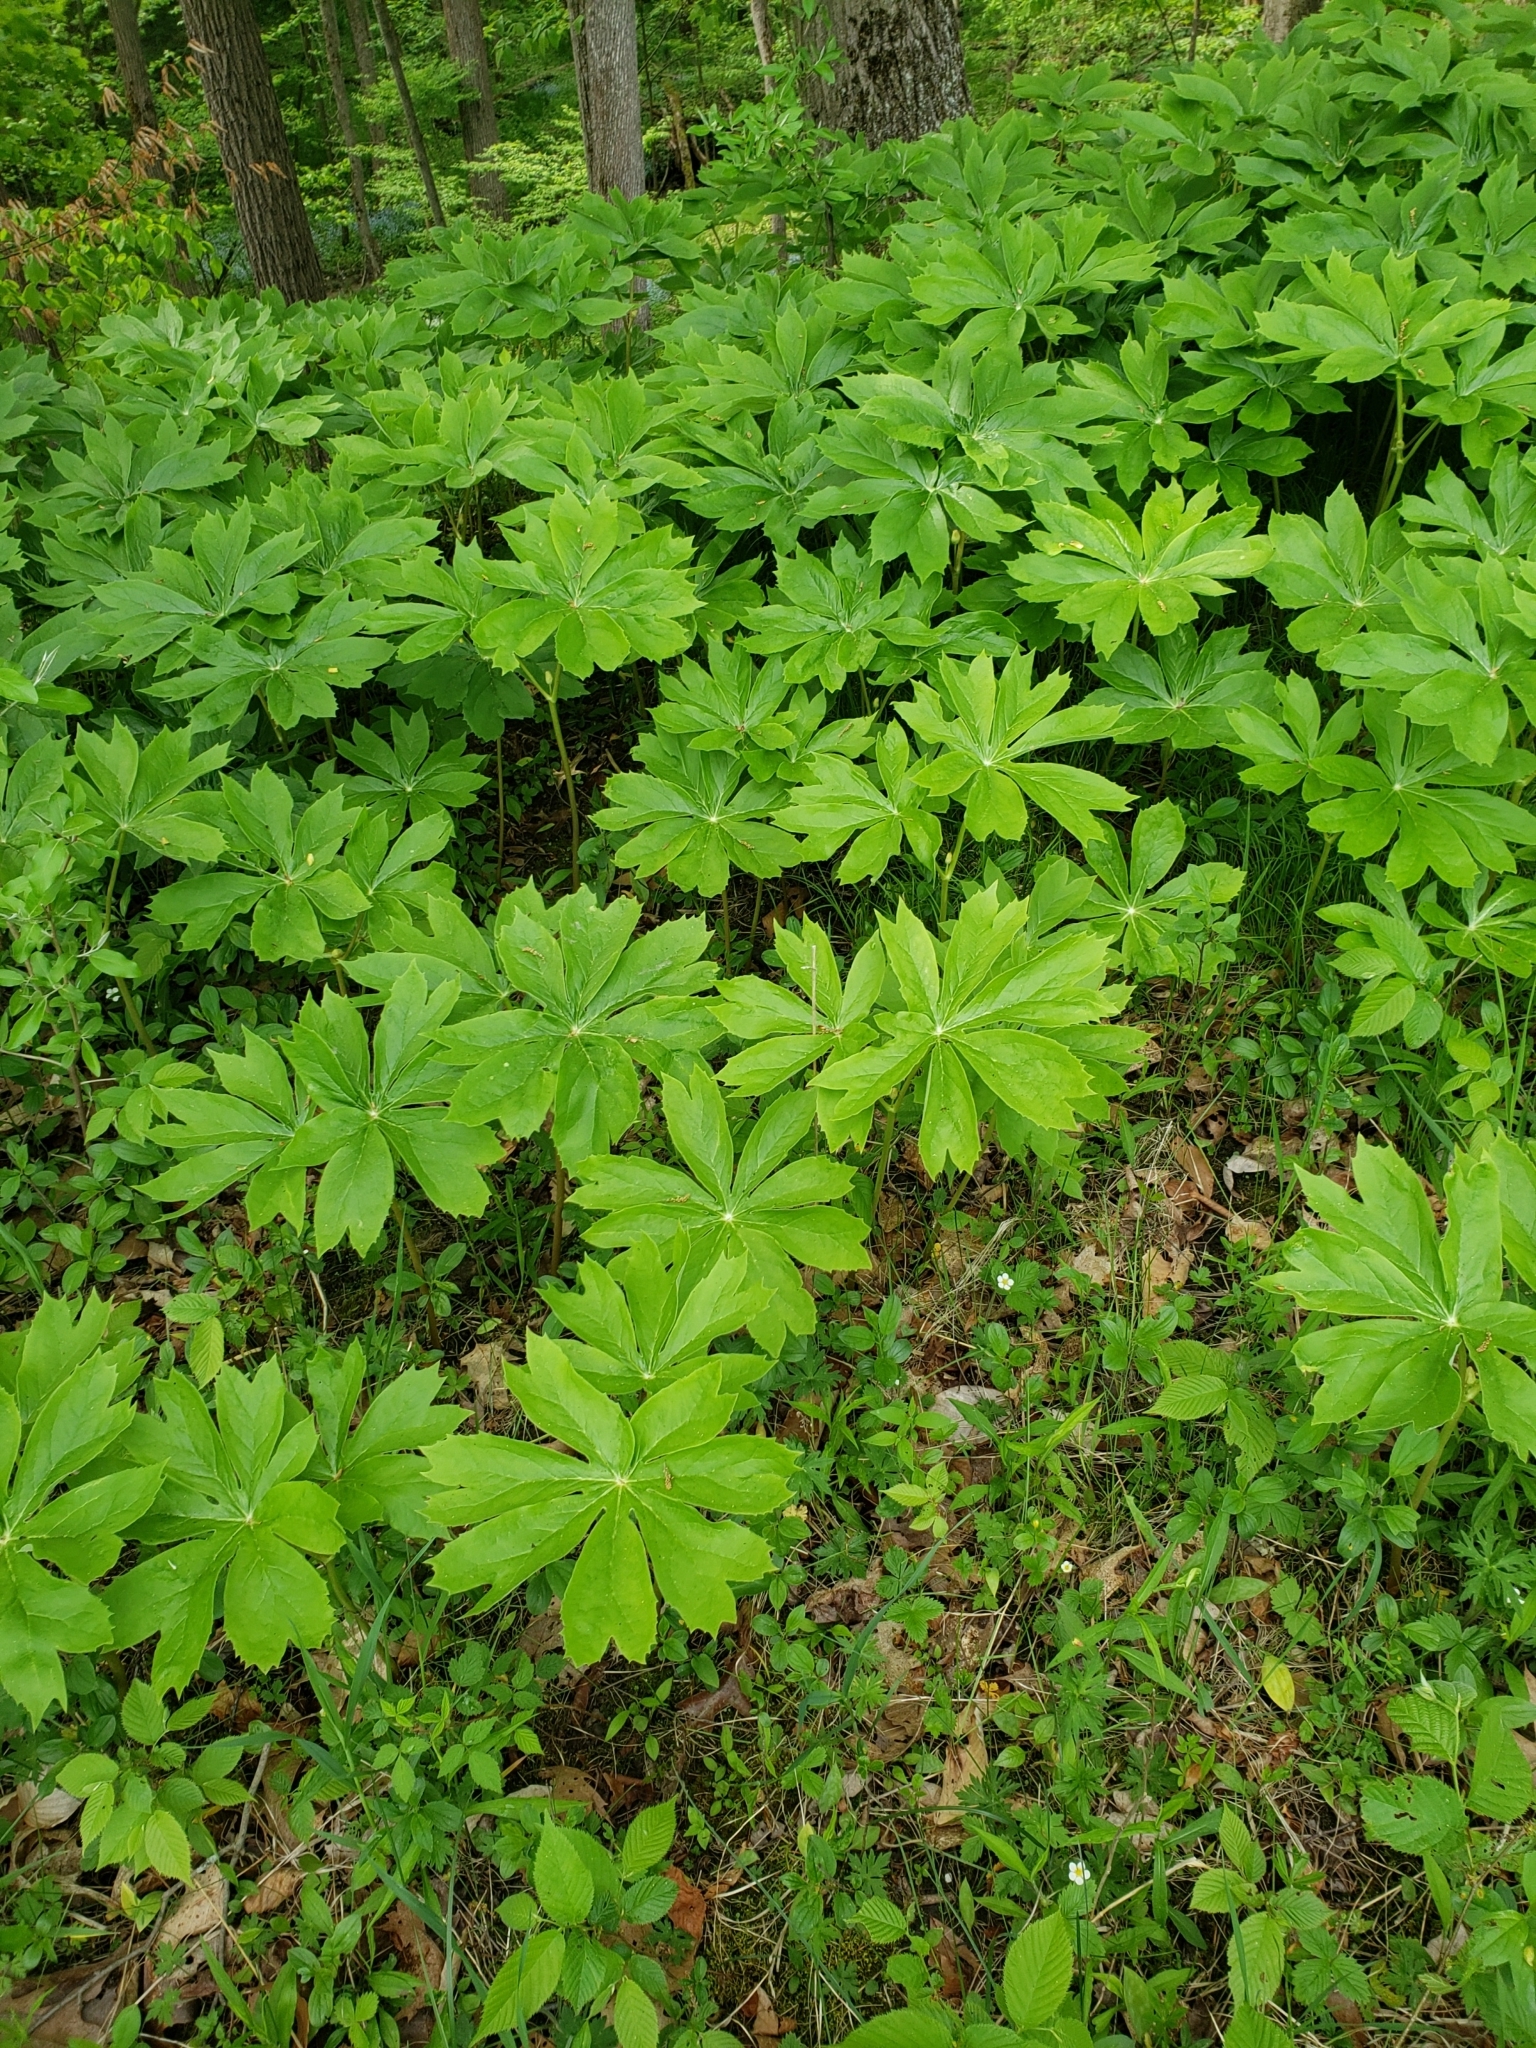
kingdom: Plantae
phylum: Tracheophyta
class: Magnoliopsida
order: Ranunculales
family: Berberidaceae
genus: Podophyllum
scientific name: Podophyllum peltatum
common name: Wild mandrake
